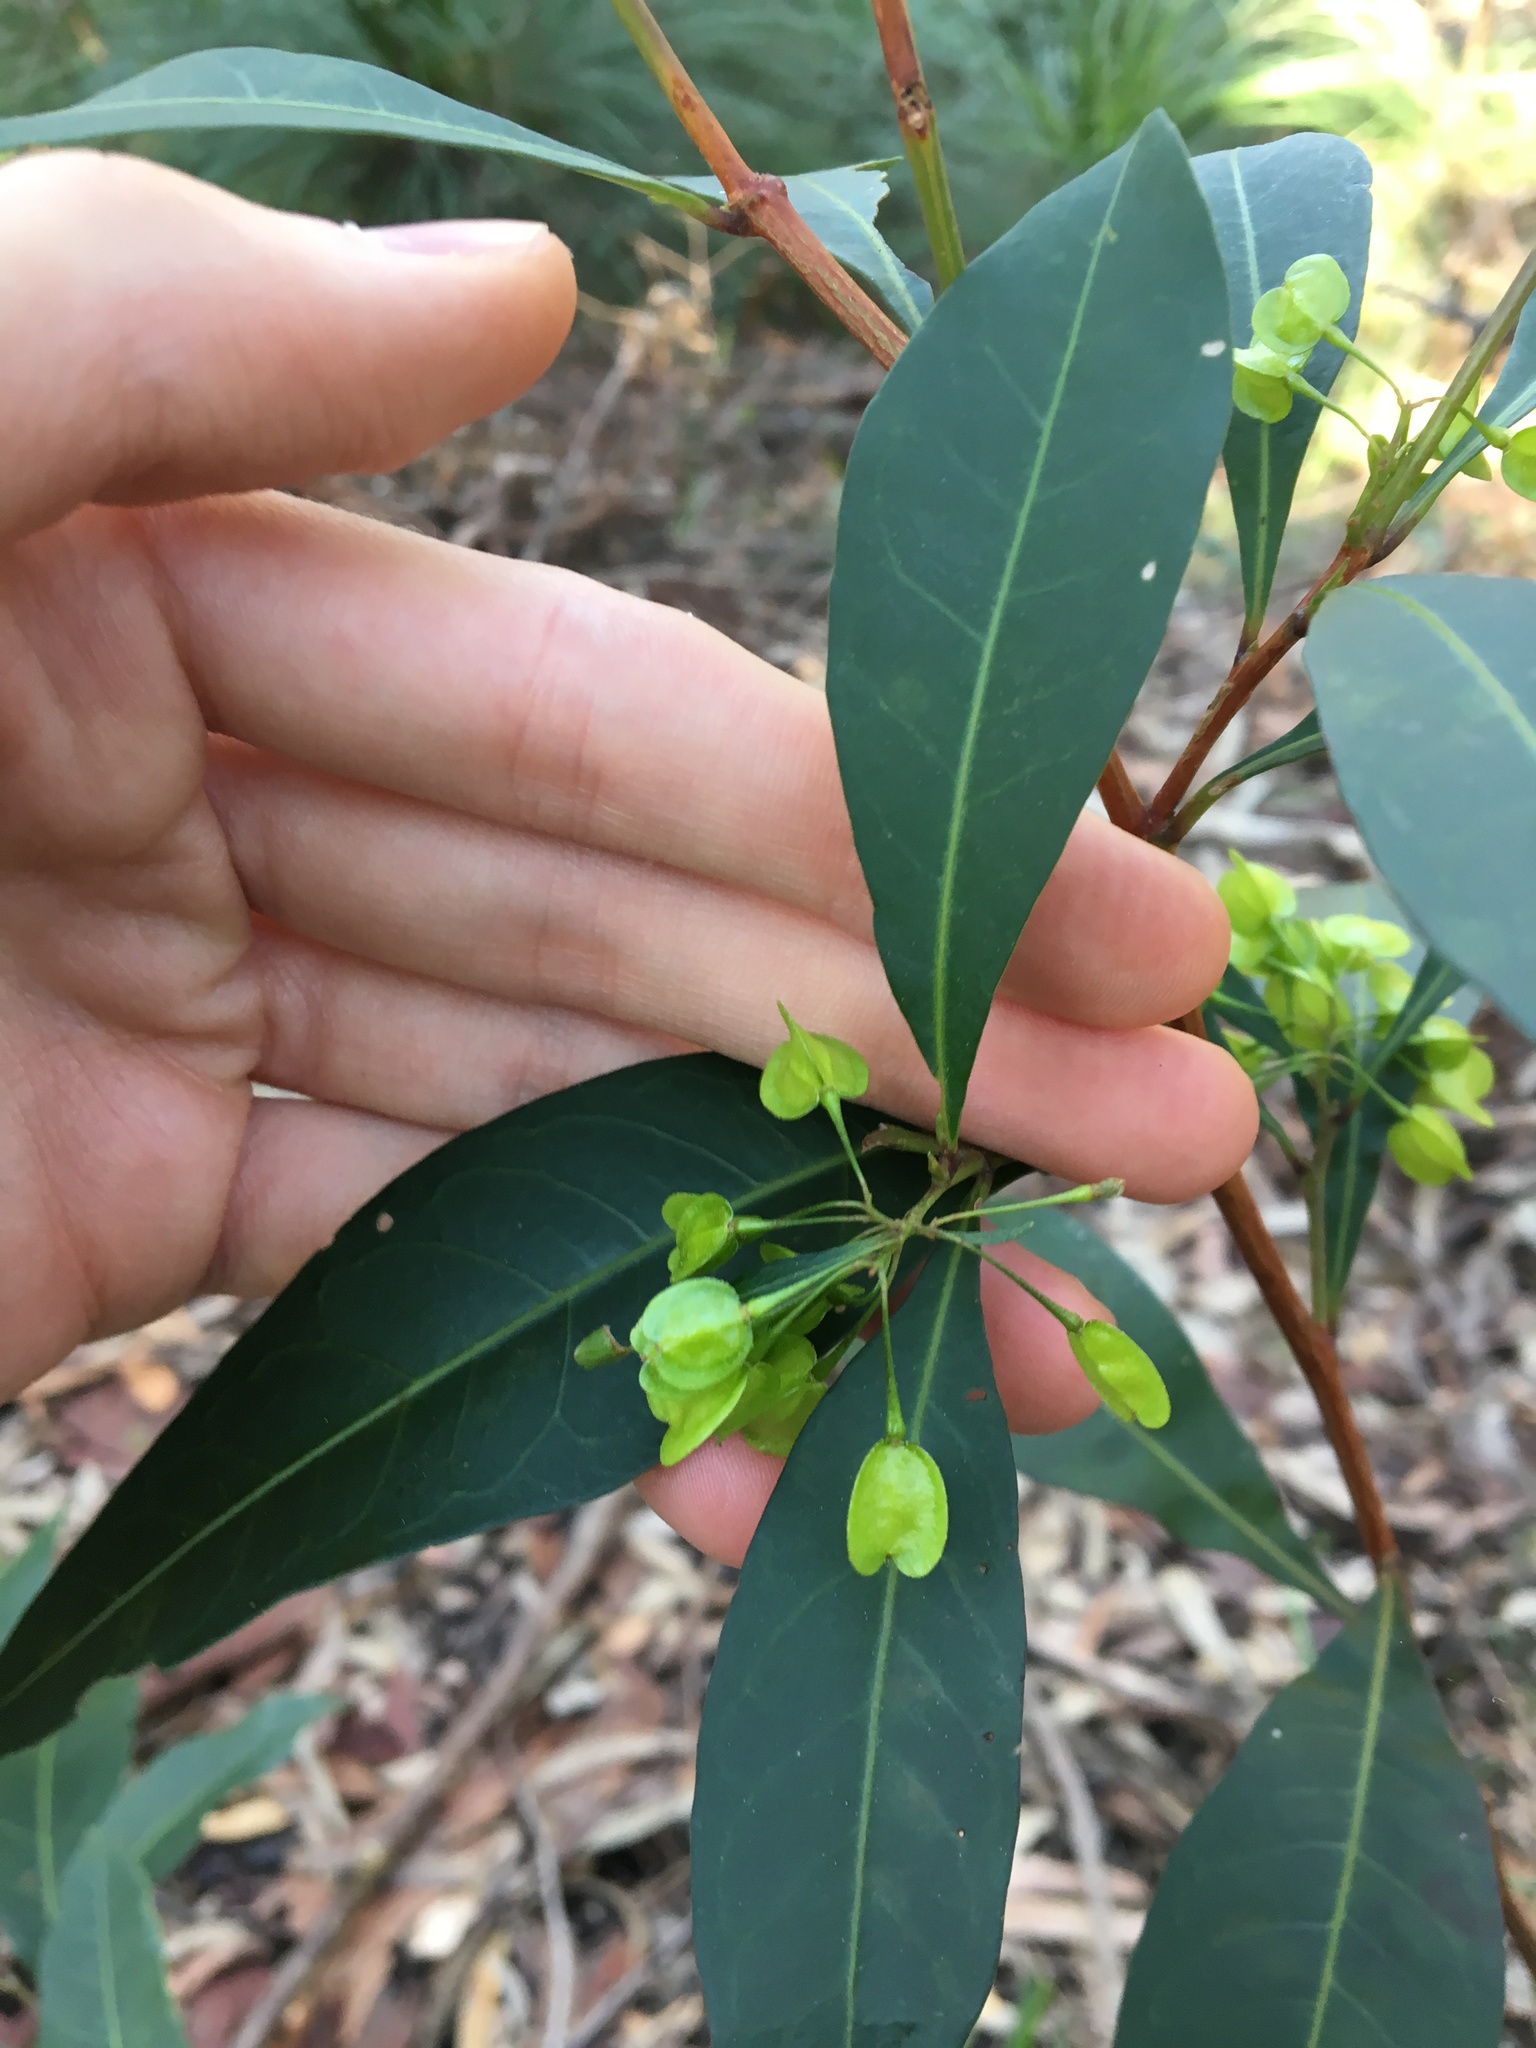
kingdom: Plantae
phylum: Tracheophyta
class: Magnoliopsida
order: Sapindales
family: Sapindaceae
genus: Dodonaea
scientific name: Dodonaea triquetra
